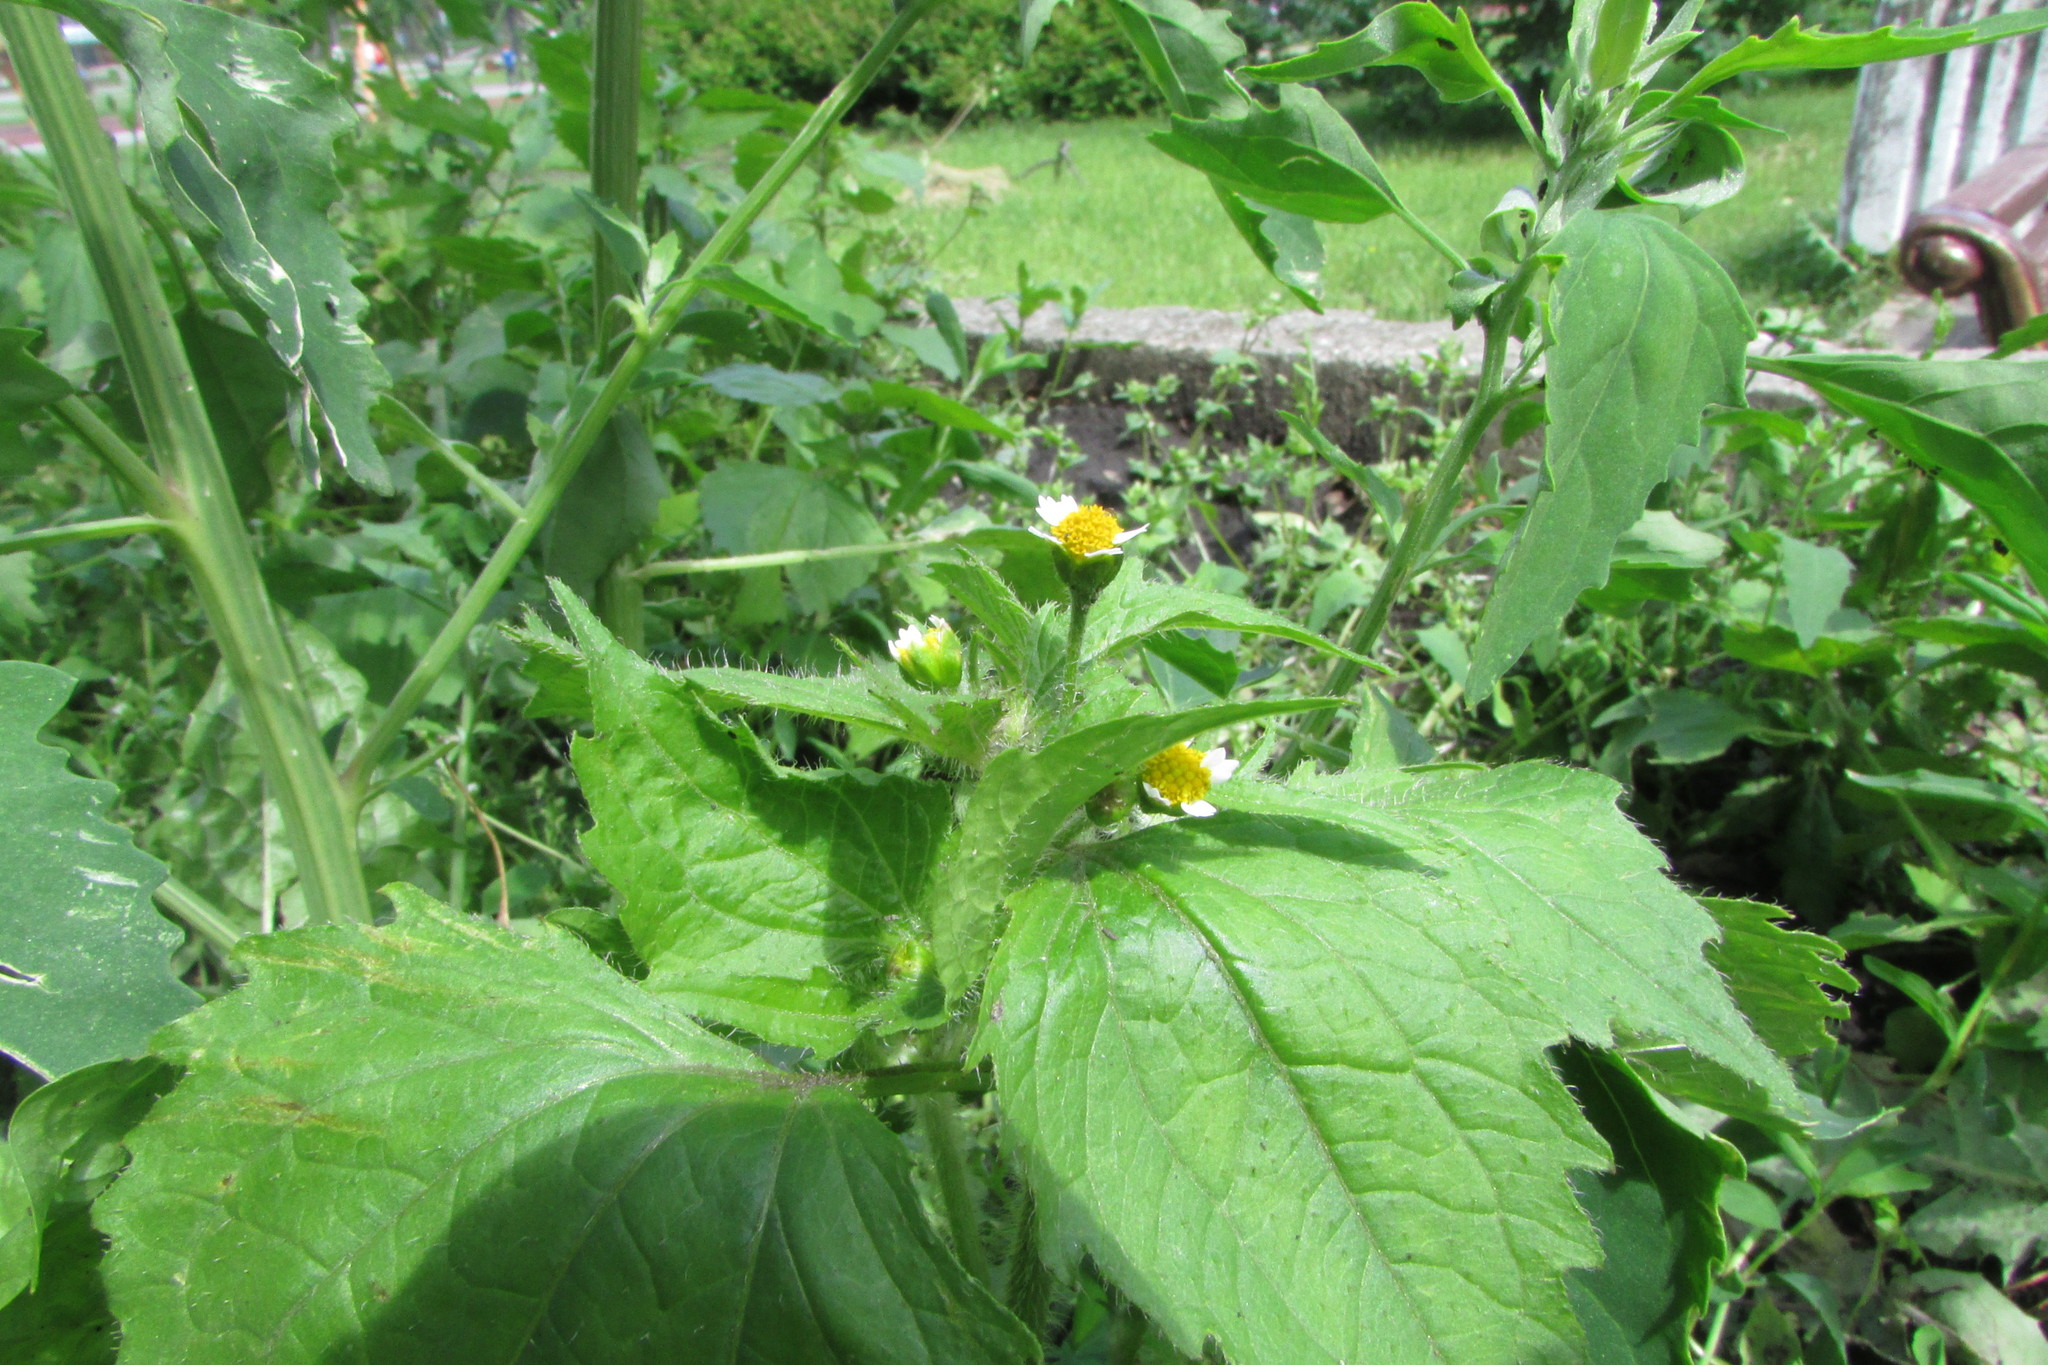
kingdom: Plantae
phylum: Tracheophyta
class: Magnoliopsida
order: Asterales
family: Asteraceae
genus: Galinsoga
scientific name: Galinsoga quadriradiata
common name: Shaggy soldier
